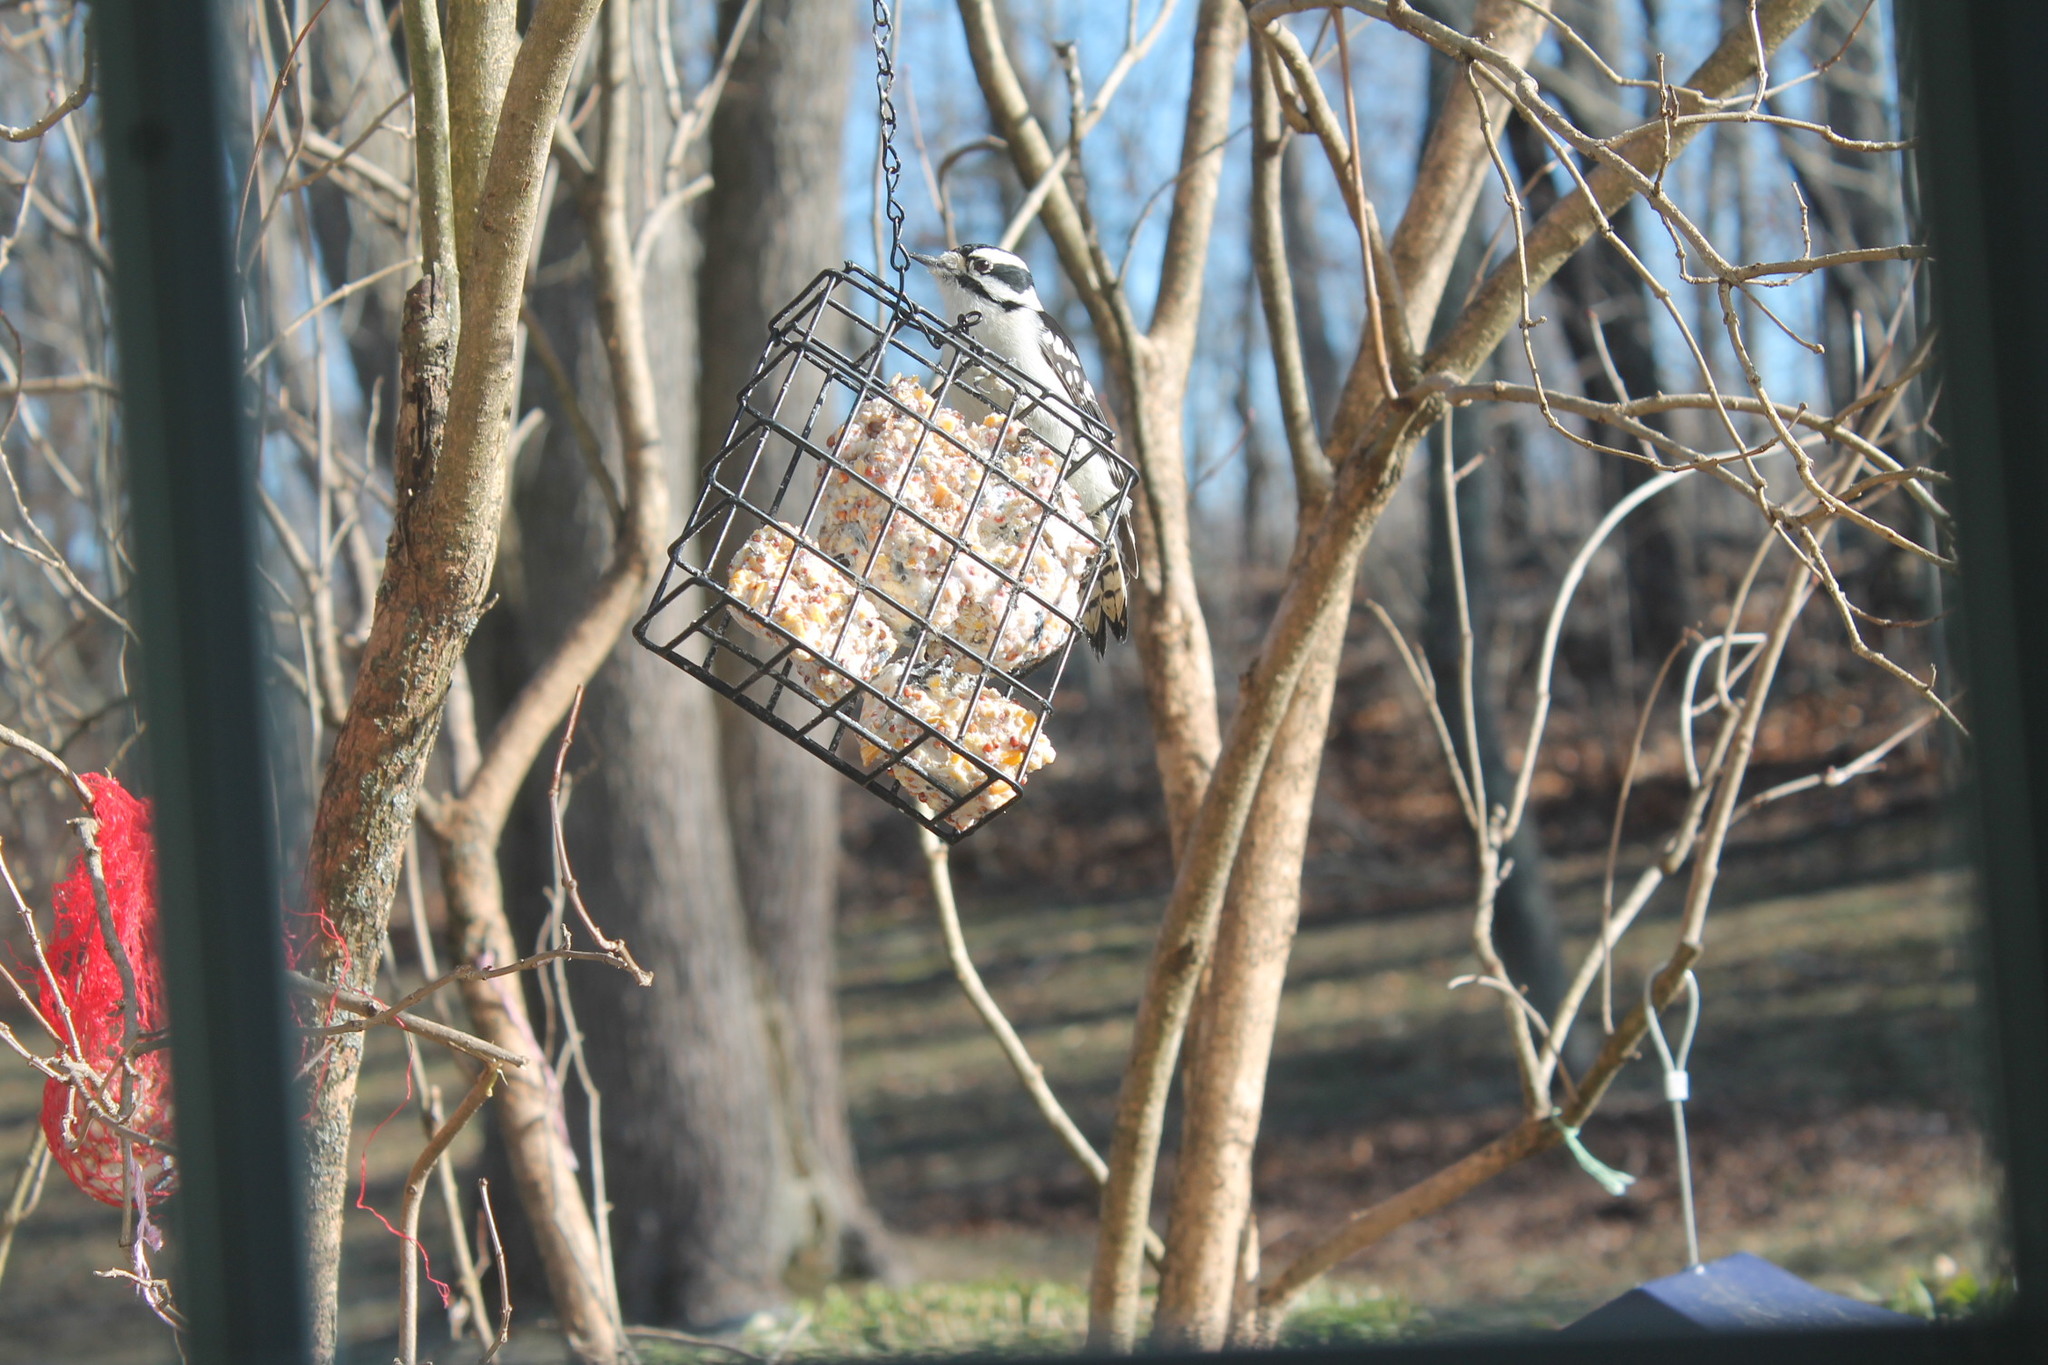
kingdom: Animalia
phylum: Chordata
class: Aves
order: Piciformes
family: Picidae
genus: Dryobates
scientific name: Dryobates pubescens
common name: Downy woodpecker
